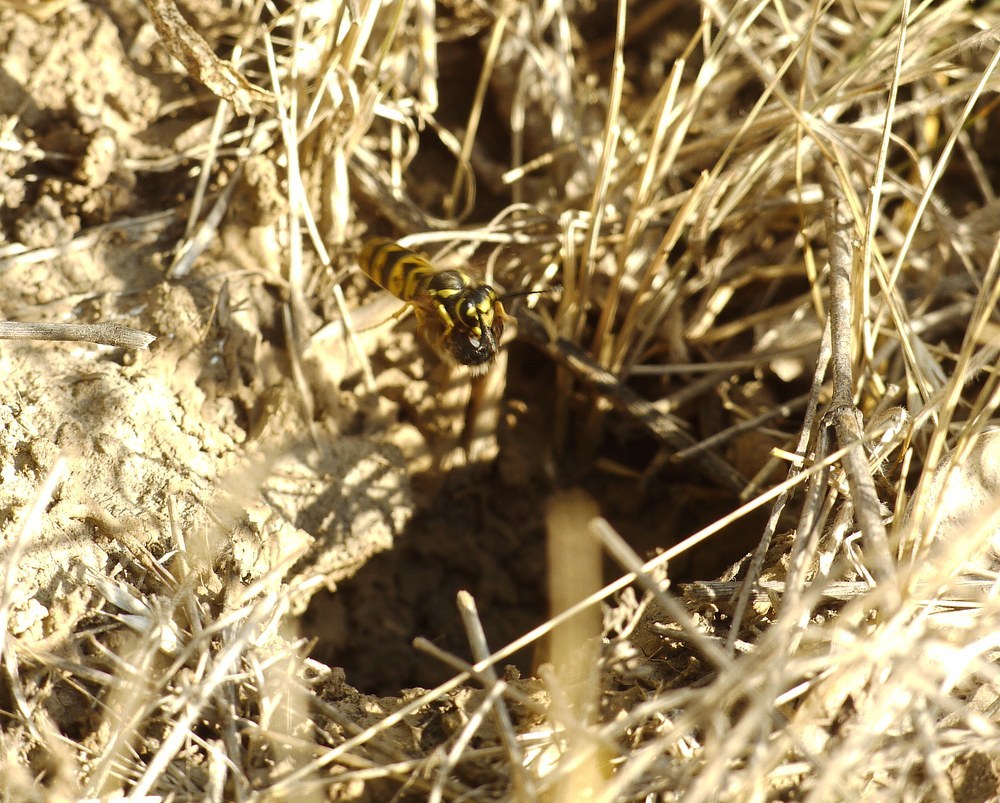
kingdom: Animalia
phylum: Arthropoda
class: Insecta
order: Hymenoptera
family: Vespidae
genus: Vespula
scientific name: Vespula germanica
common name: German wasp
